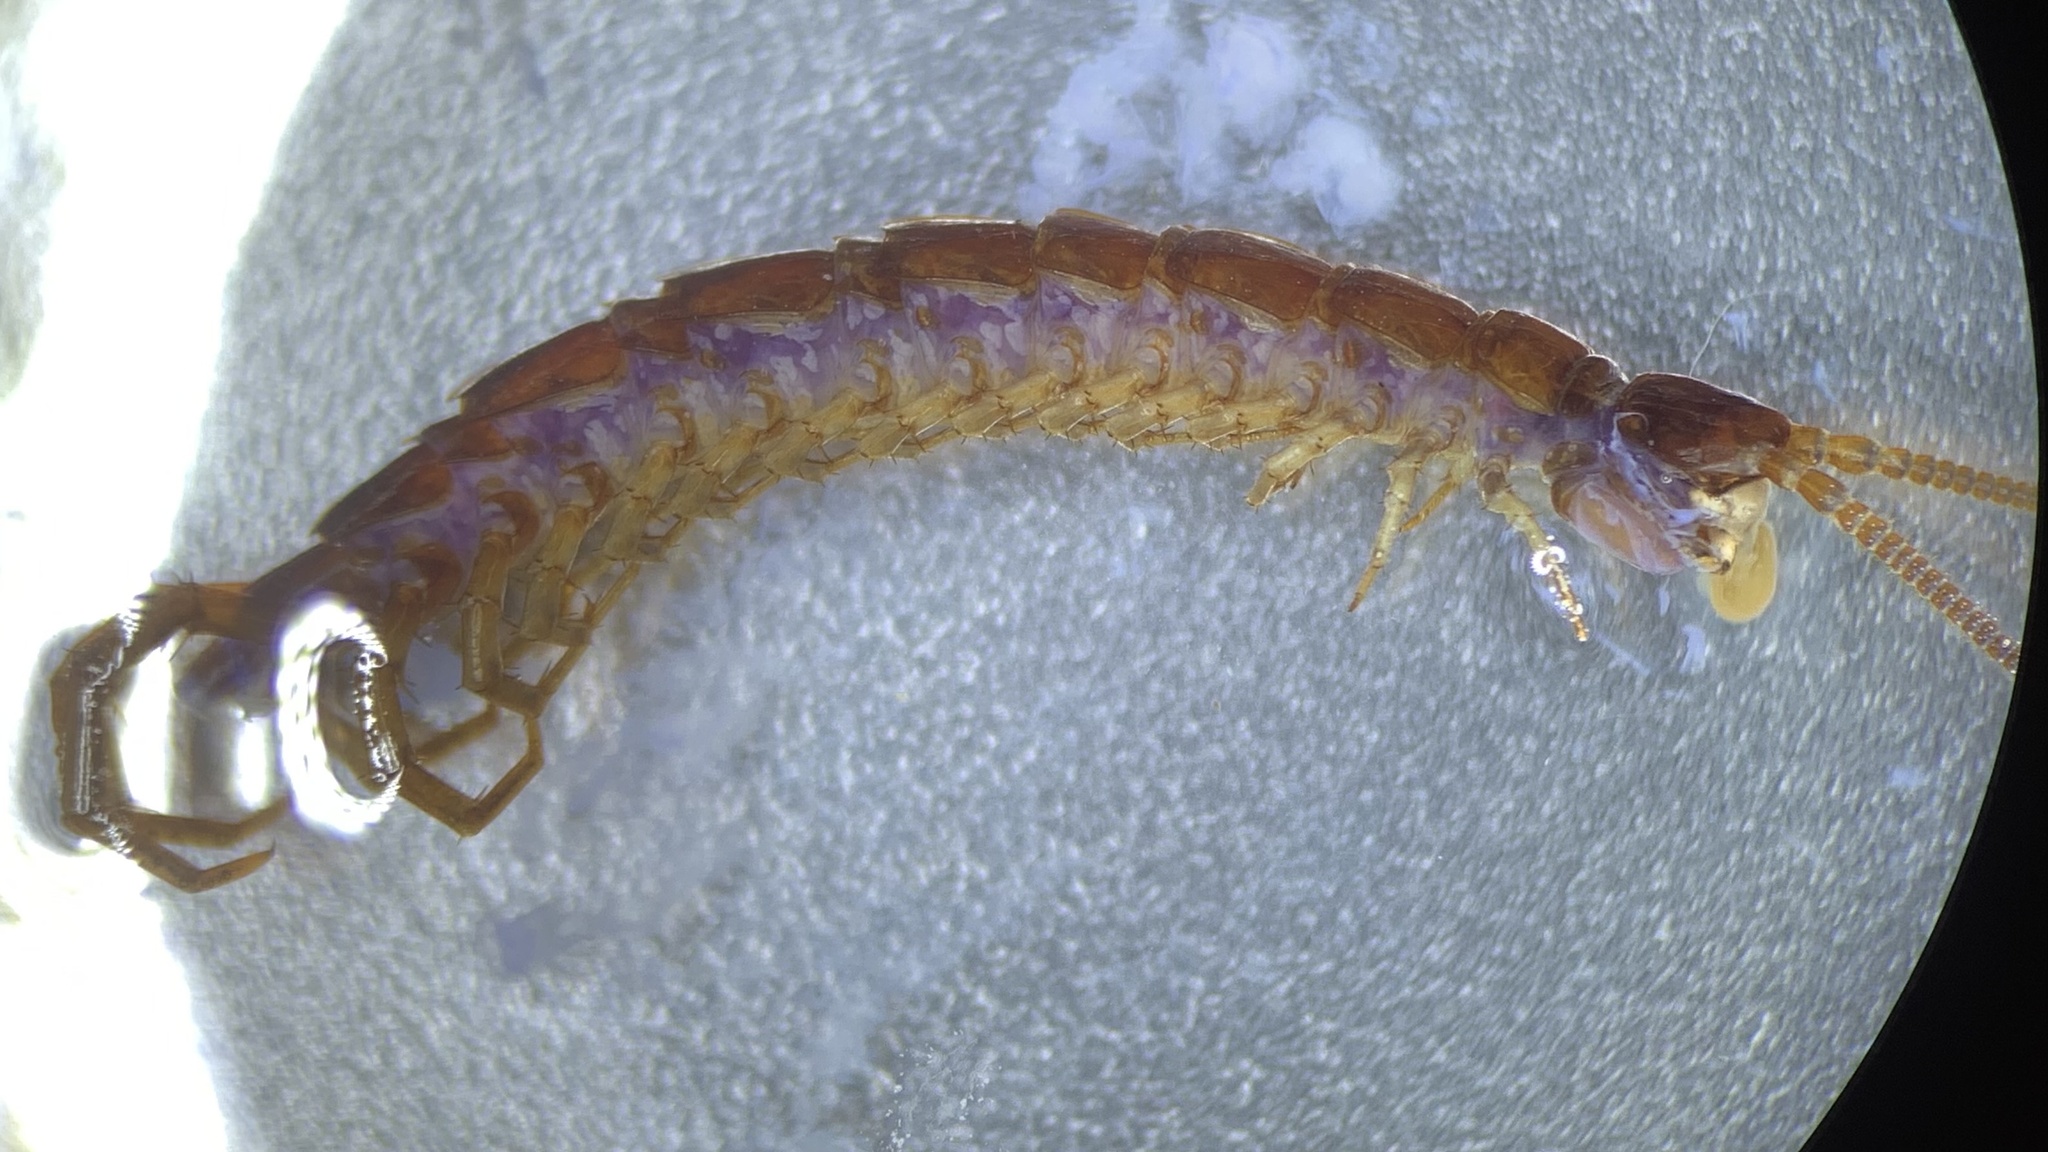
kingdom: Animalia
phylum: Arthropoda
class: Chilopoda
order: Lithobiomorpha
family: Lithobiidae
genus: Lithobius
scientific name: Lithobius forficatus
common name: Centipede
